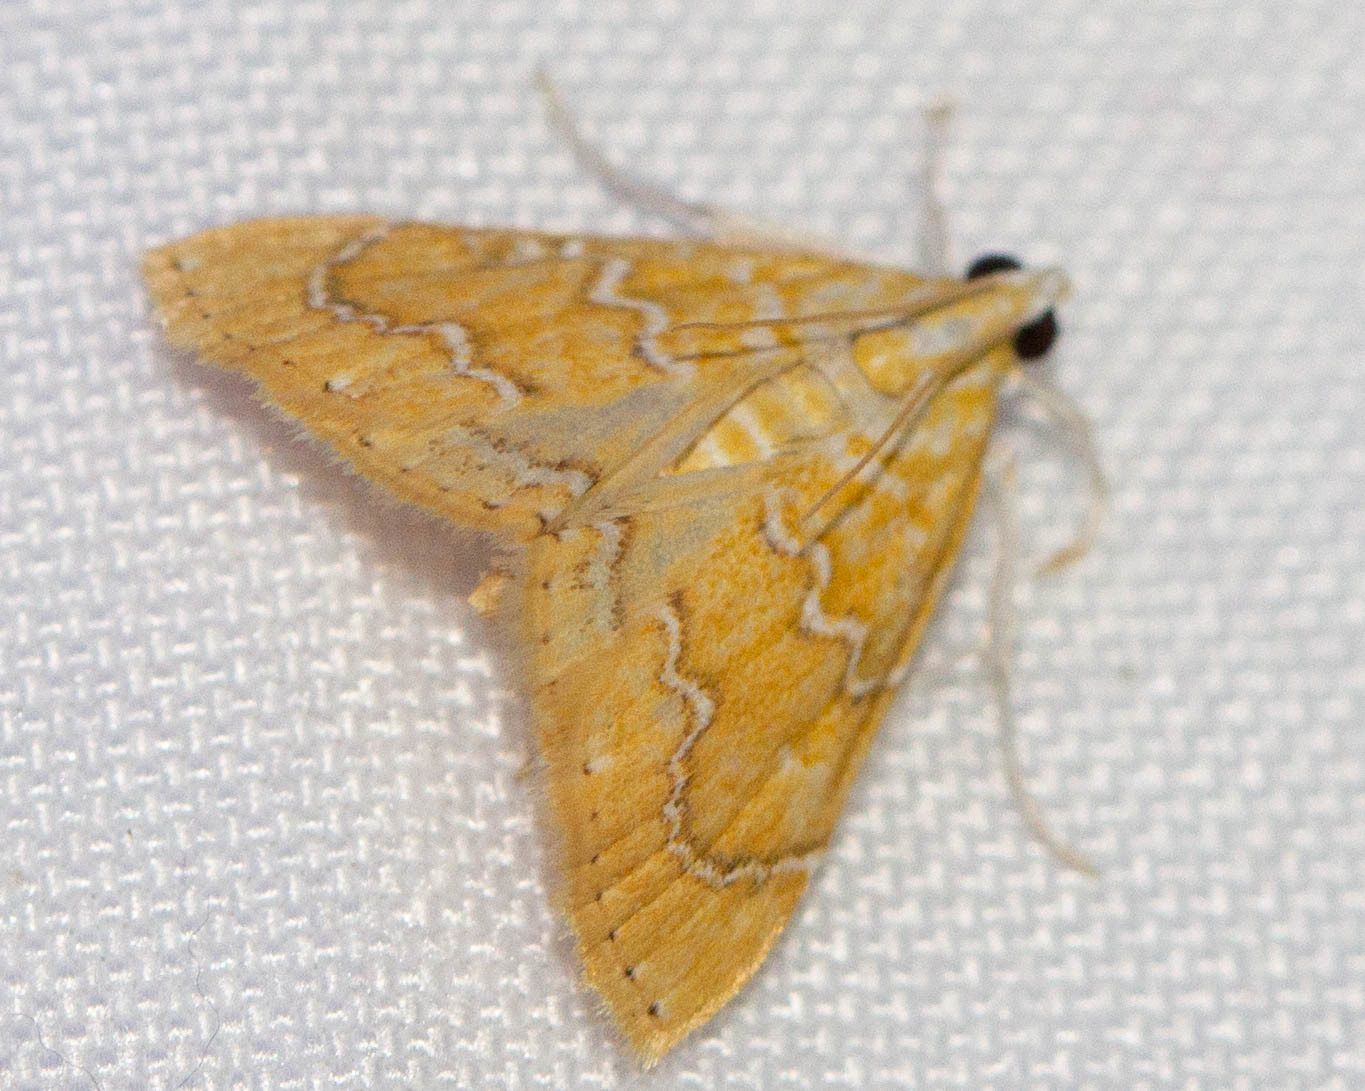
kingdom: Animalia
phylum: Arthropoda
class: Insecta
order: Lepidoptera
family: Crambidae
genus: Glaphyria
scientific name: Glaphyria sesquistrialis
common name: White-roped glaphyria
